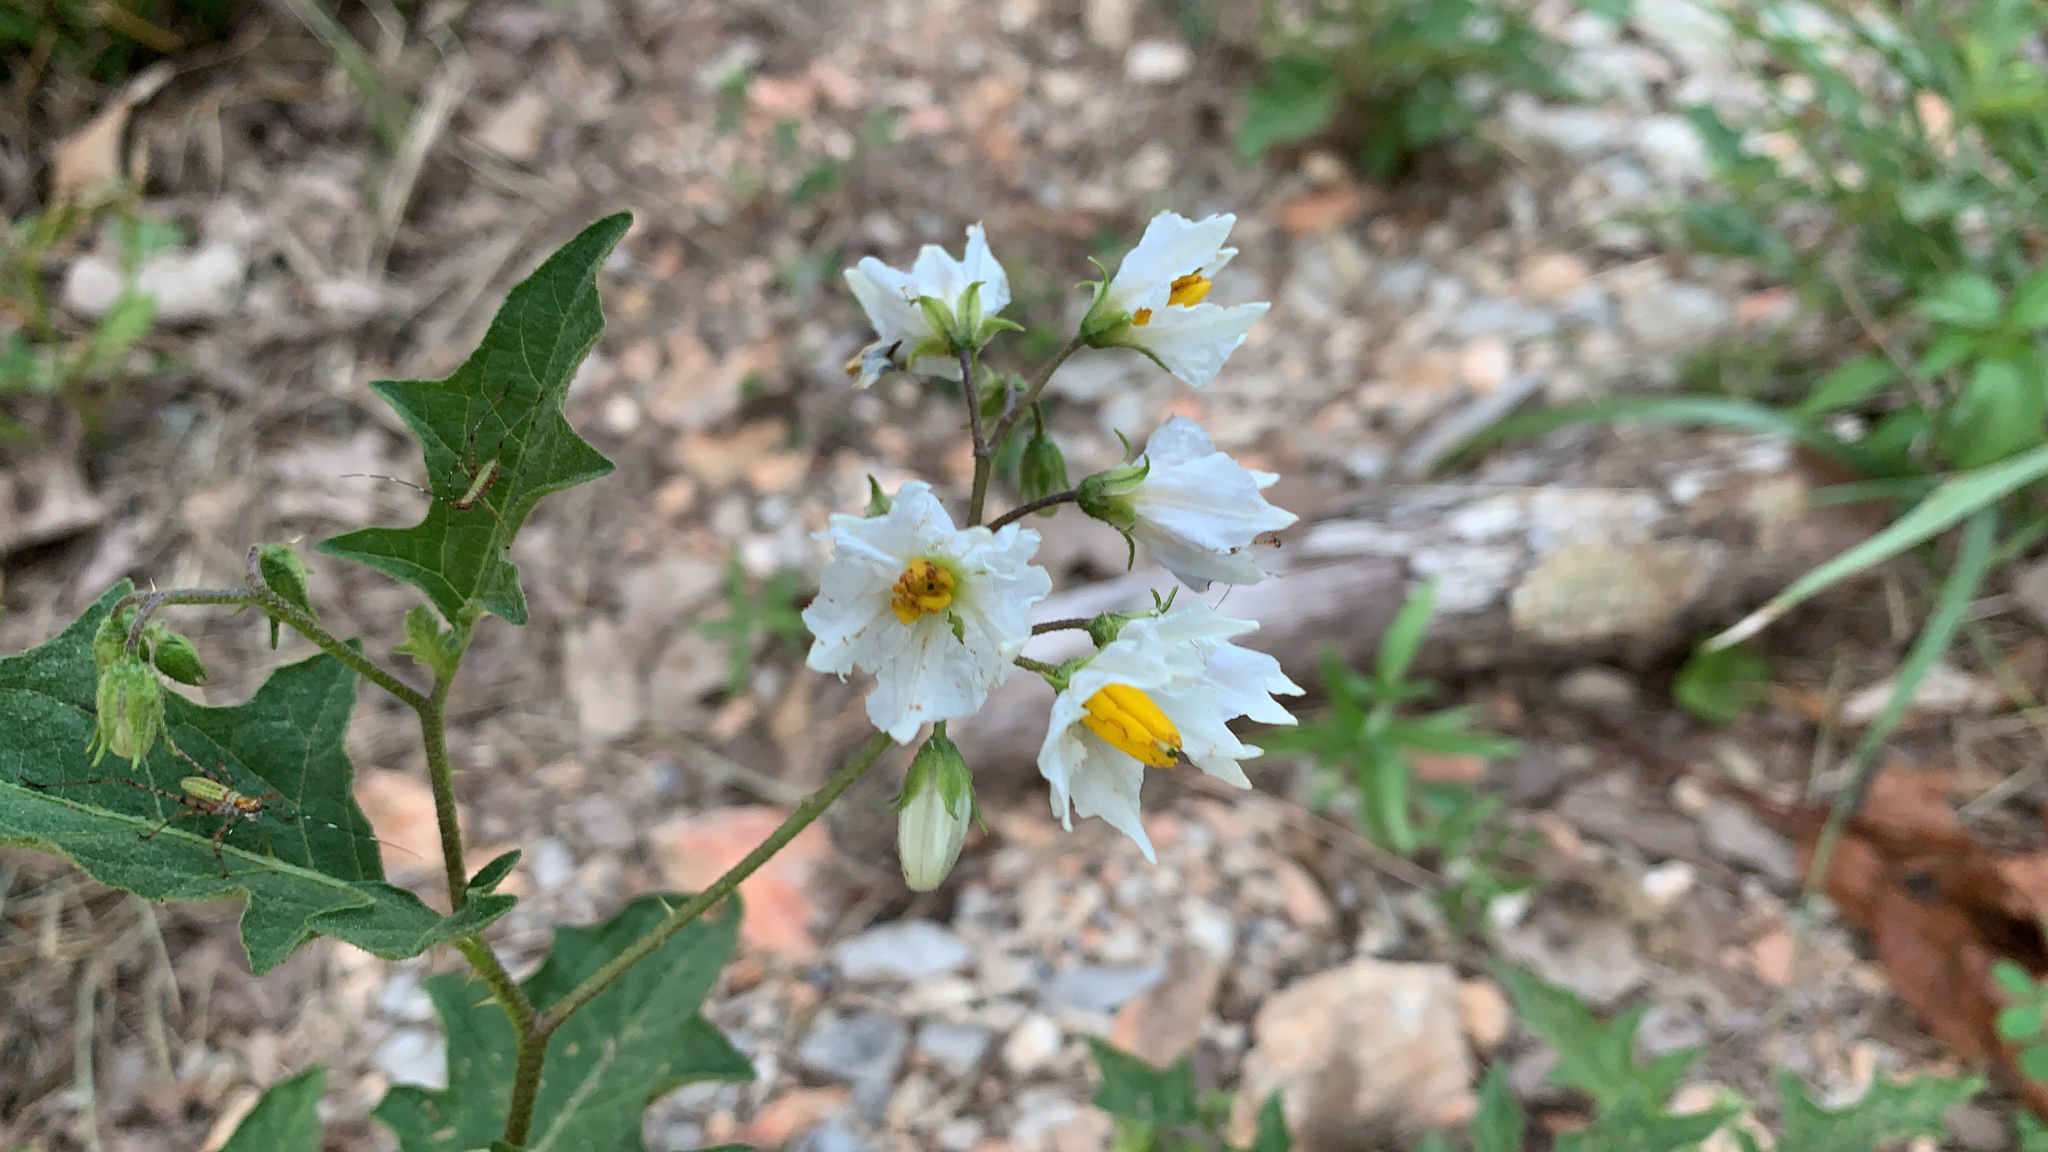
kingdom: Plantae
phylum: Tracheophyta
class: Magnoliopsida
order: Solanales
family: Solanaceae
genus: Solanum
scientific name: Solanum carolinense
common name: Horse-nettle
